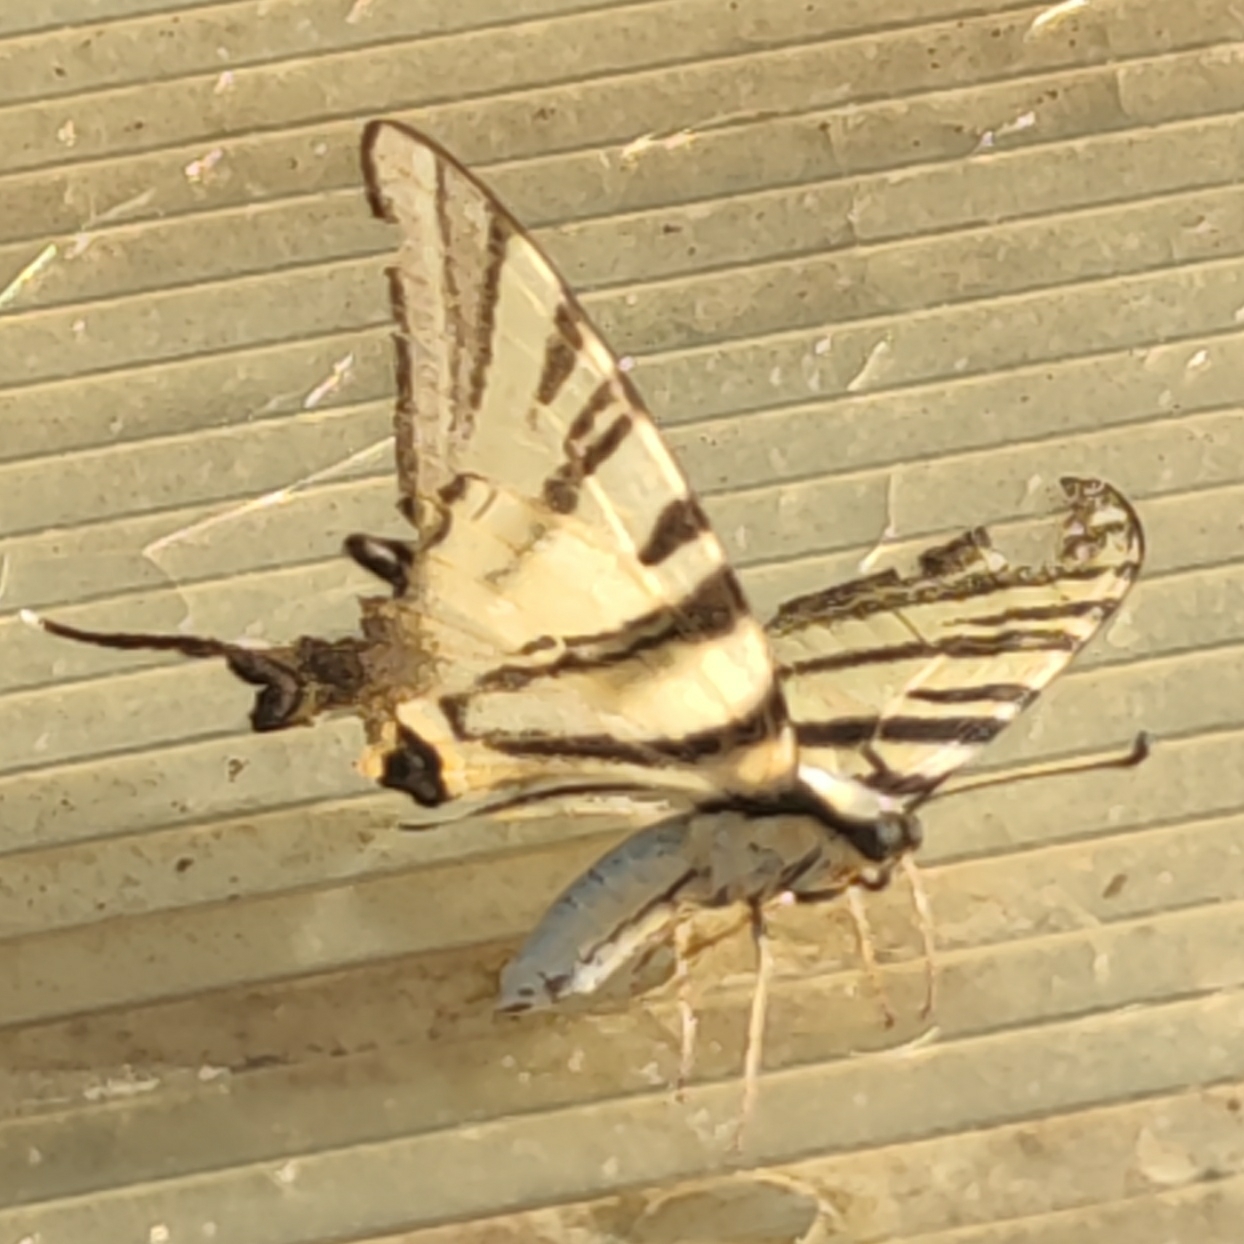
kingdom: Animalia
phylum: Arthropoda
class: Insecta
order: Lepidoptera
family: Papilionidae
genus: Iphiclides
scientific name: Iphiclides podalirius
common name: Scarce swallowtail
